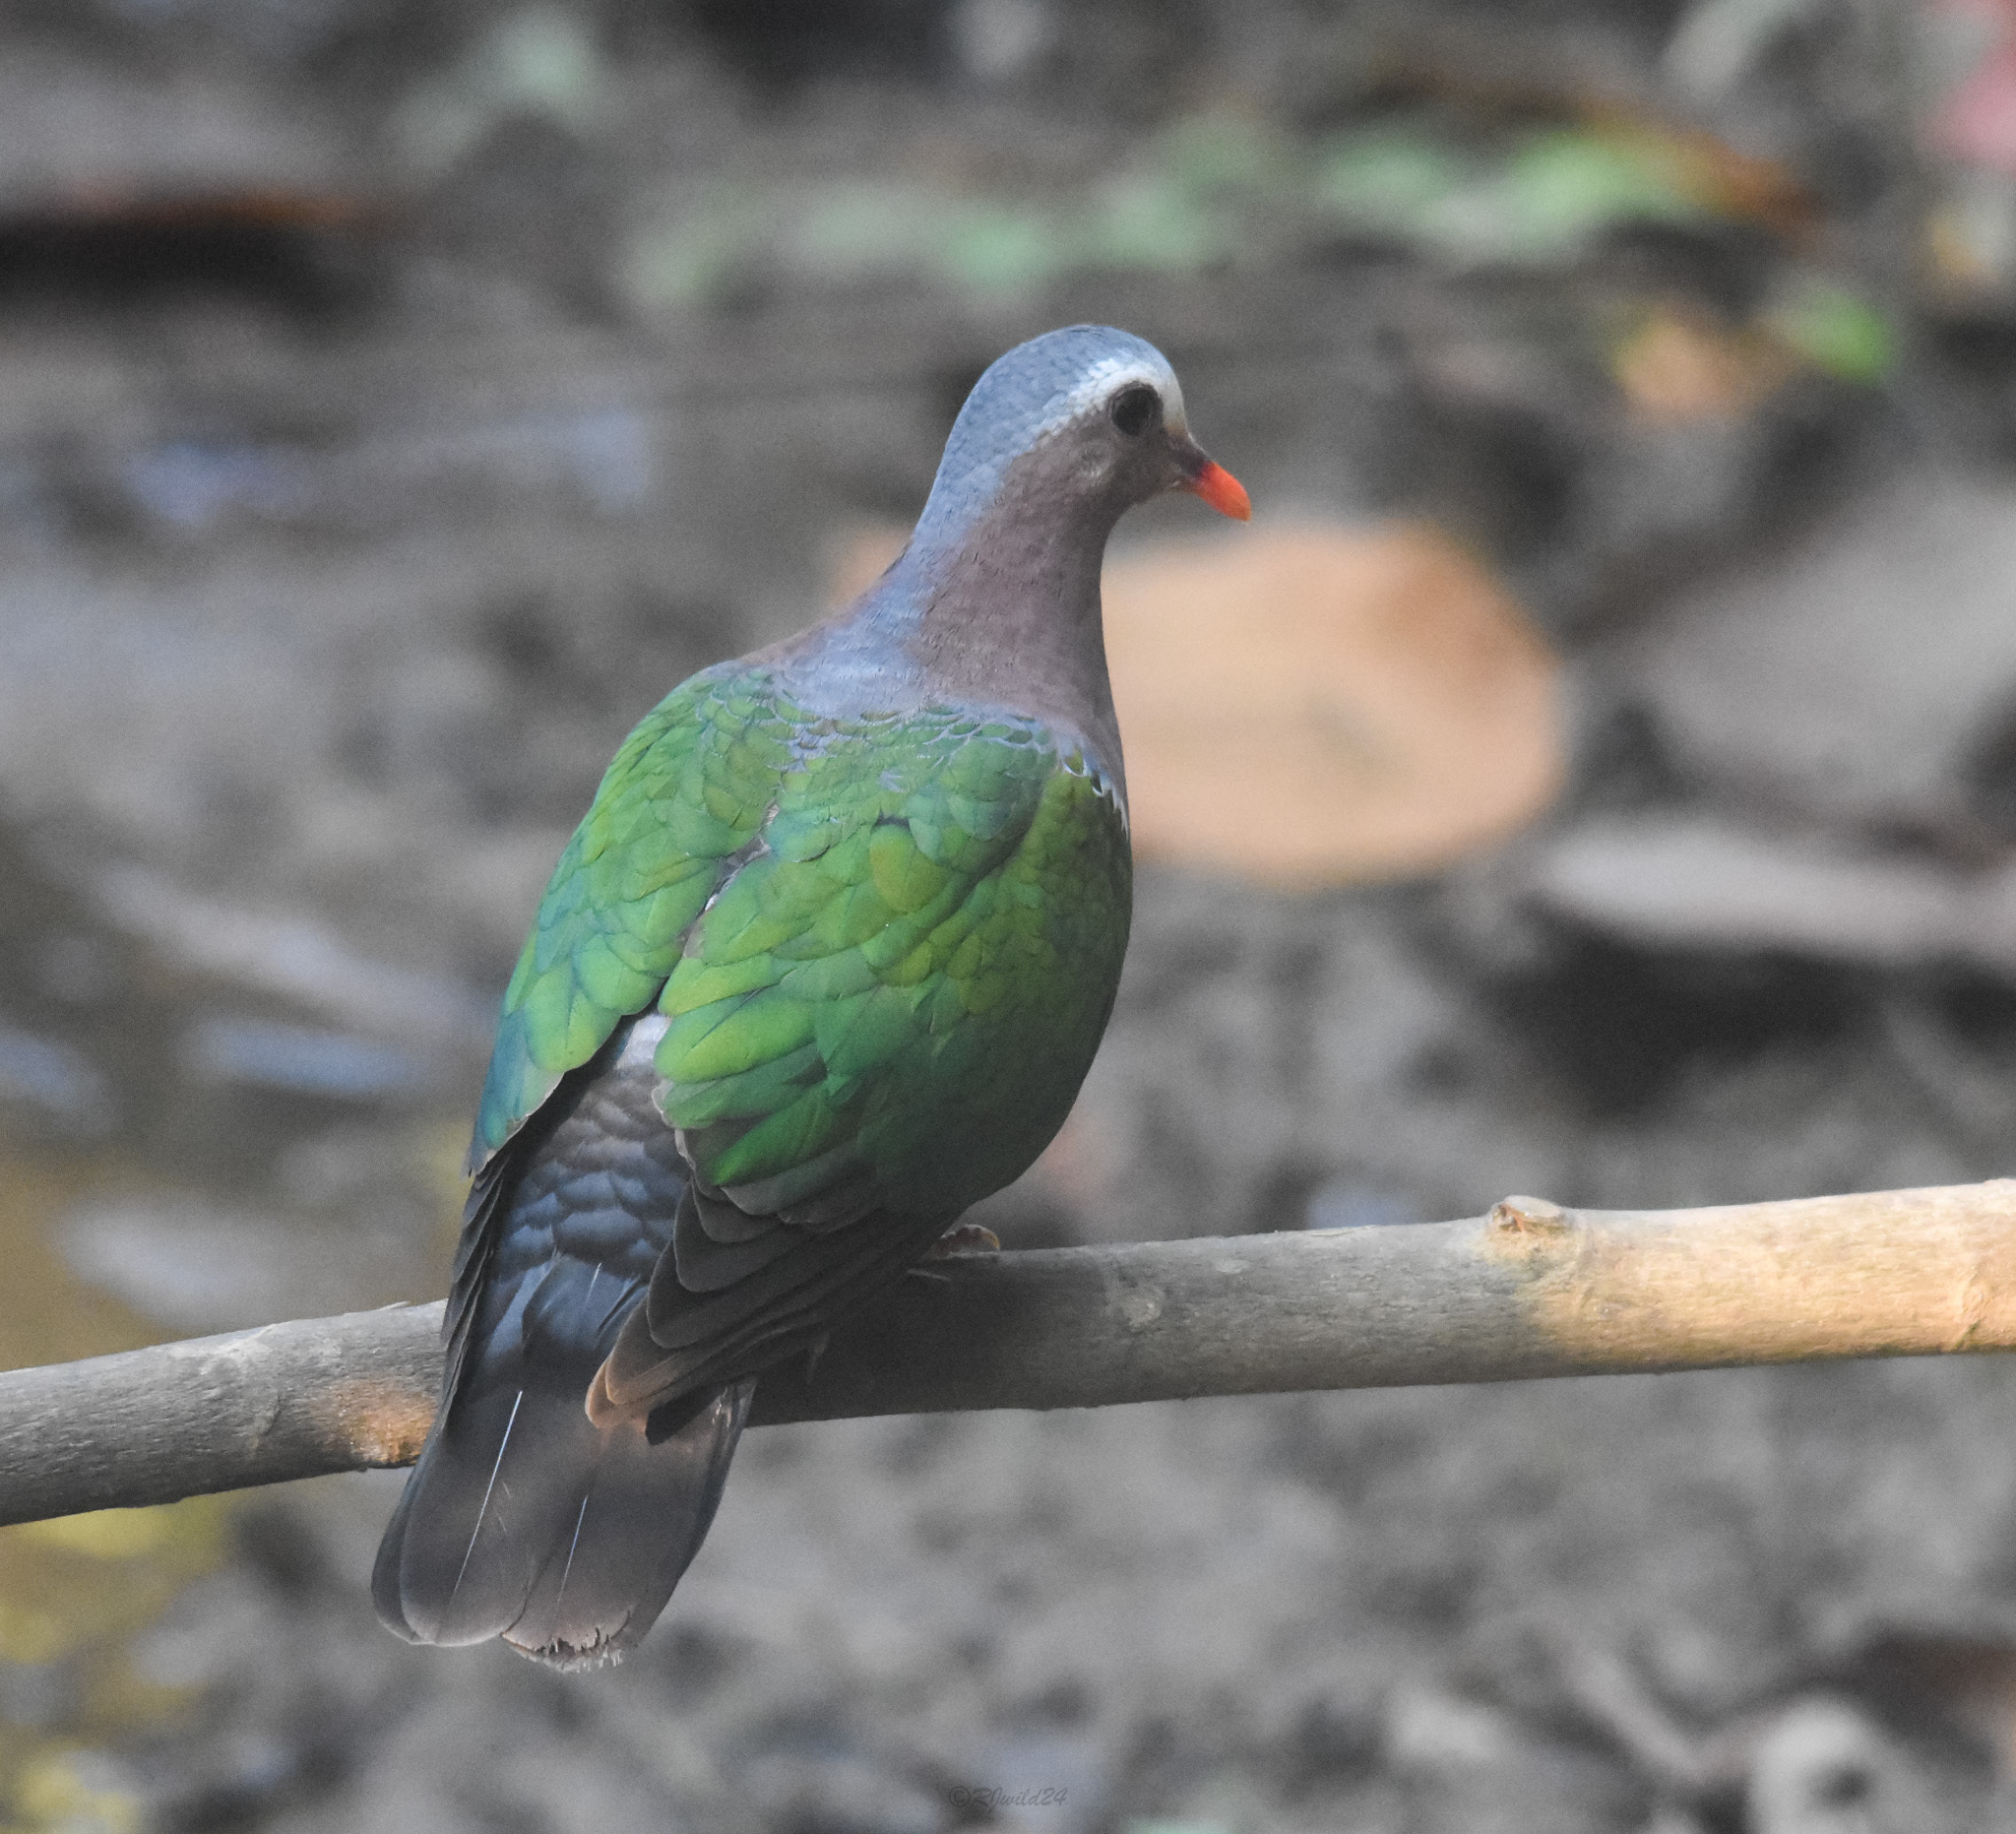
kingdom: Animalia
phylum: Chordata
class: Aves
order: Columbiformes
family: Columbidae
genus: Chalcophaps
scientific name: Chalcophaps indica
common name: Common emerald dove
